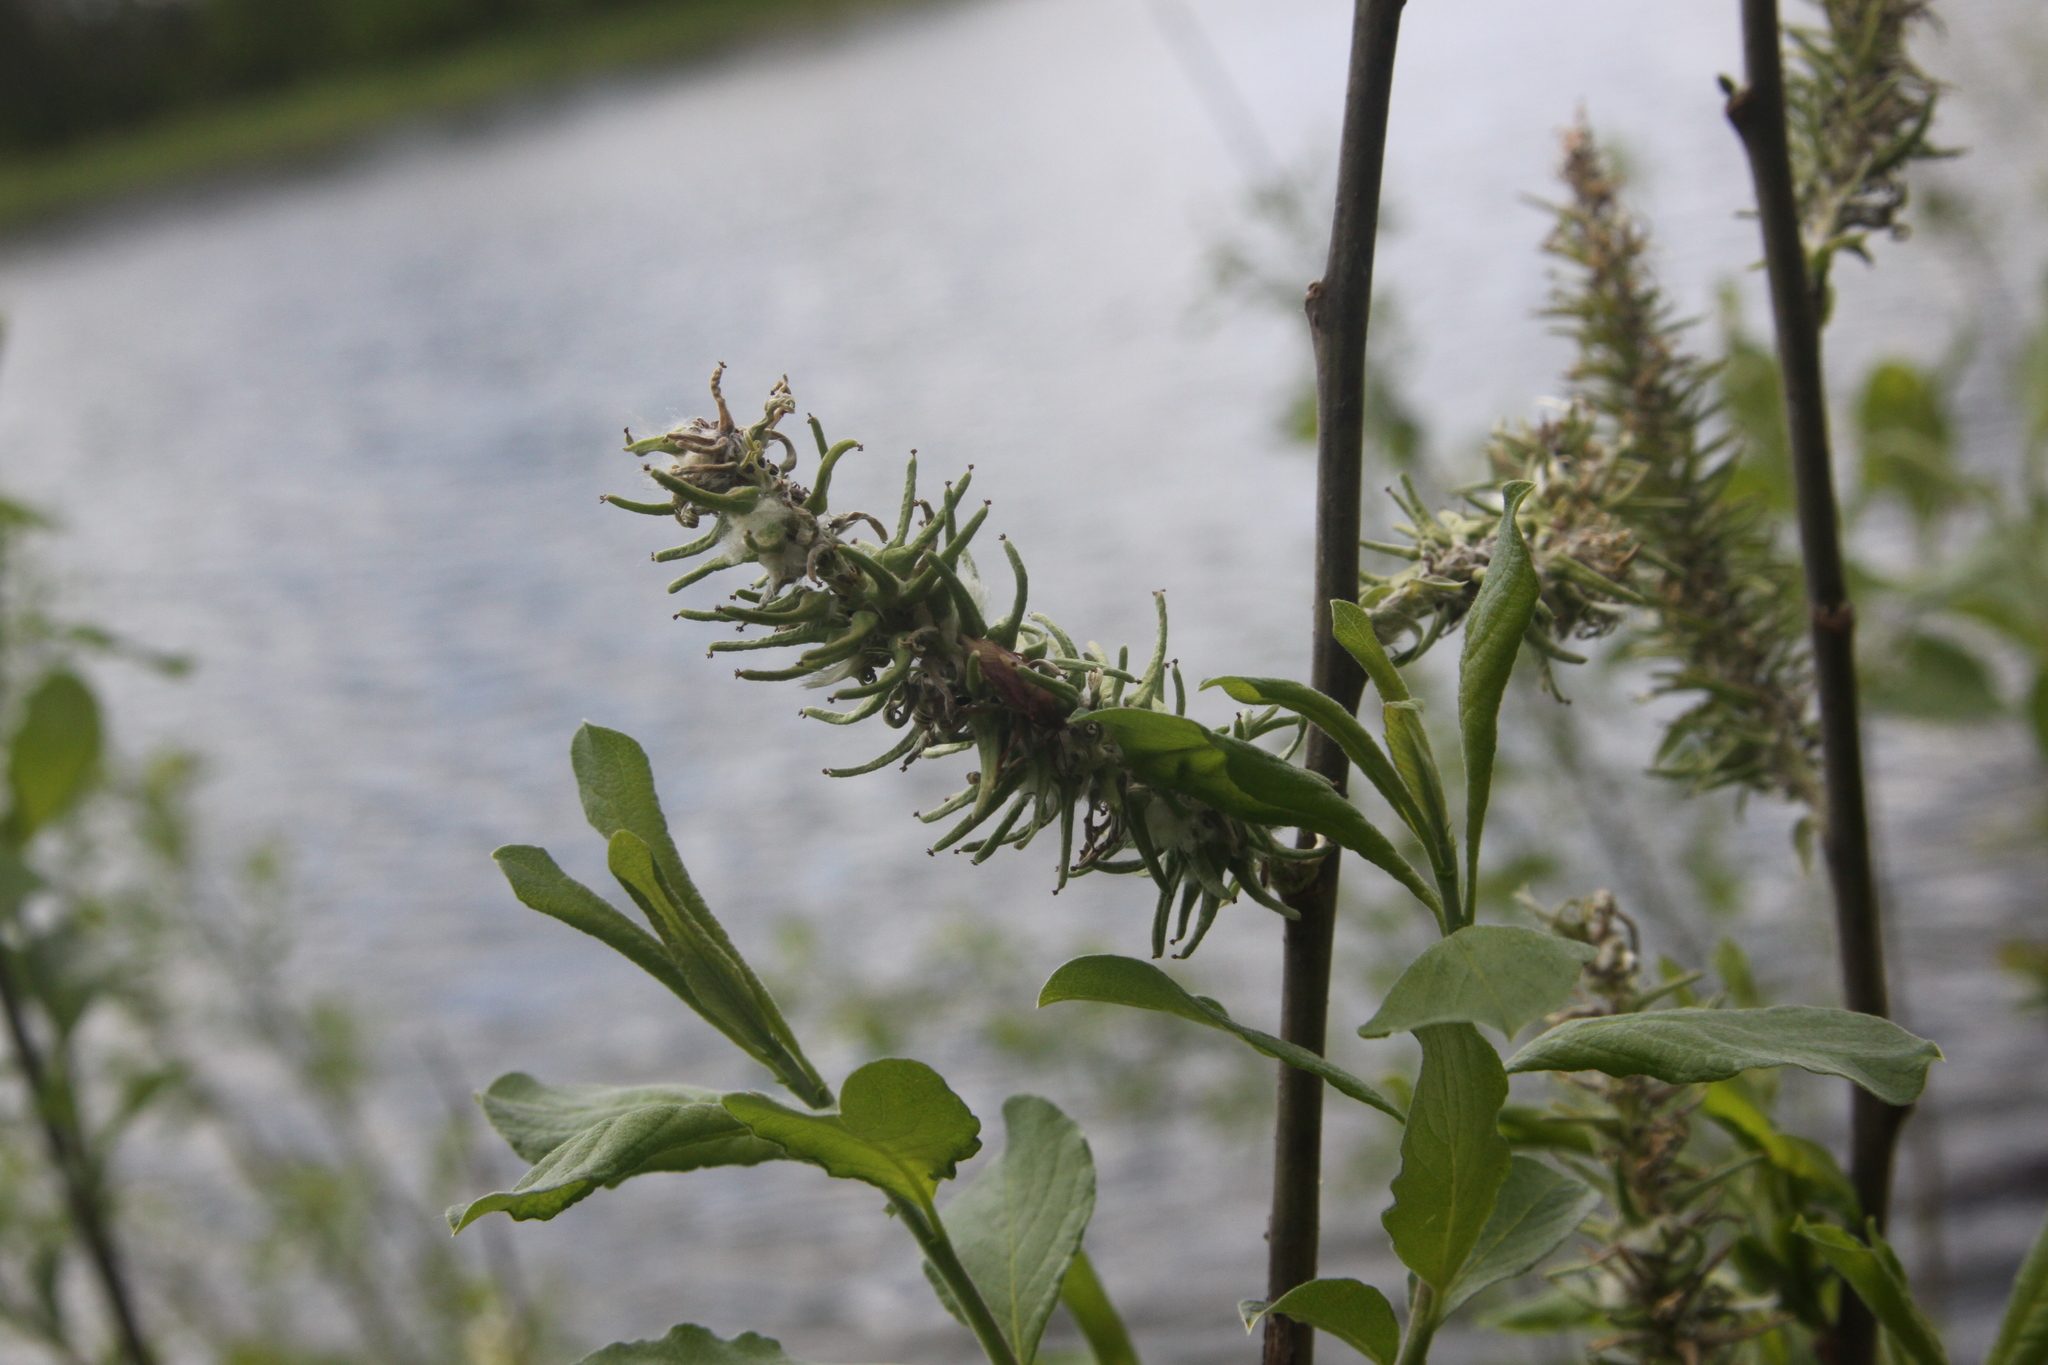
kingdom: Plantae
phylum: Tracheophyta
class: Magnoliopsida
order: Malpighiales
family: Salicaceae
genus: Salix
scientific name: Salix cinerea
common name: Common sallow
